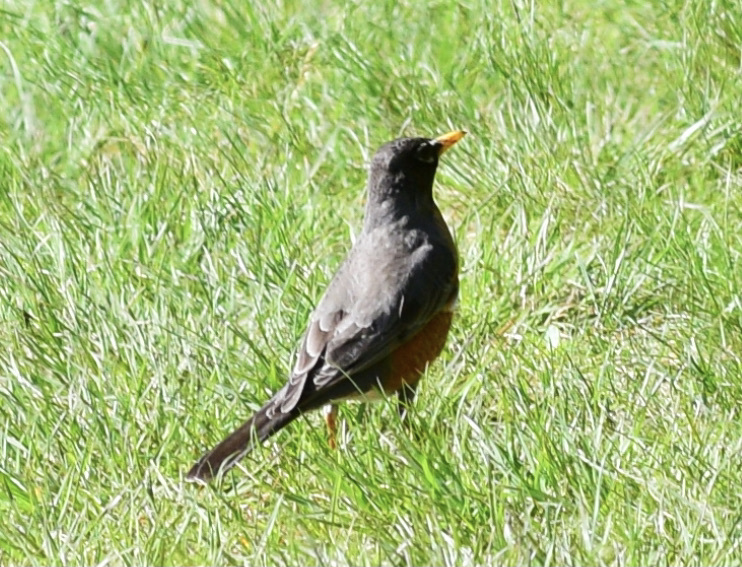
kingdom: Animalia
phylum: Chordata
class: Aves
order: Passeriformes
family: Turdidae
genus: Turdus
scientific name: Turdus migratorius
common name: American robin
